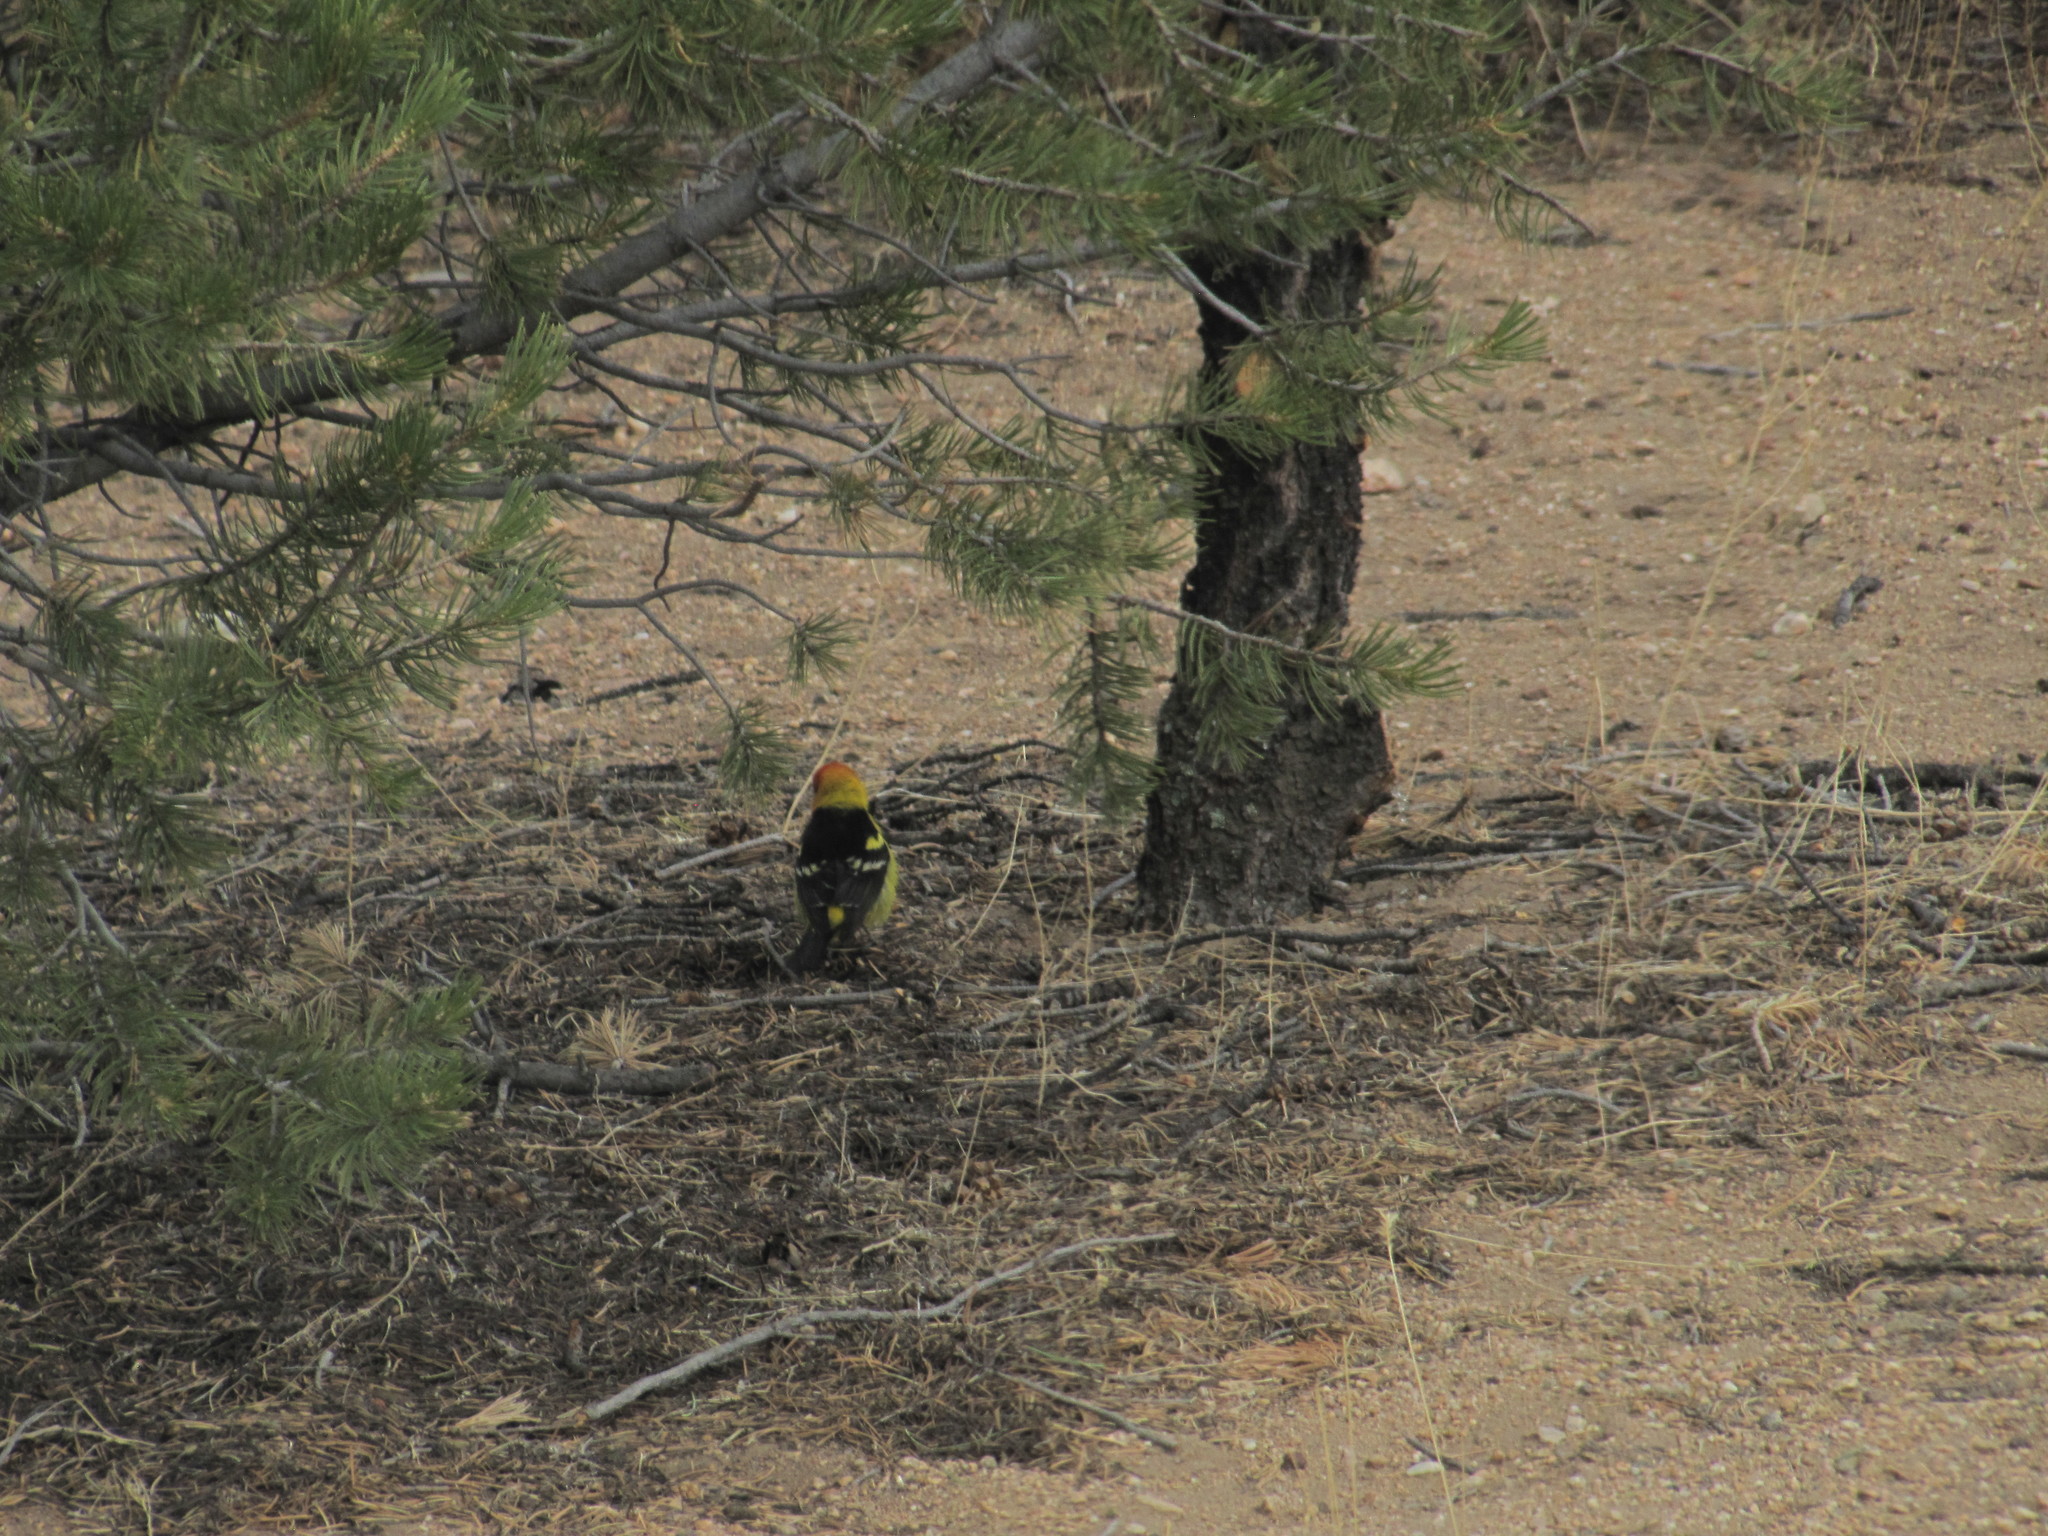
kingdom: Animalia
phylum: Chordata
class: Aves
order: Passeriformes
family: Cardinalidae
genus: Piranga
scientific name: Piranga ludoviciana
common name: Western tanager
